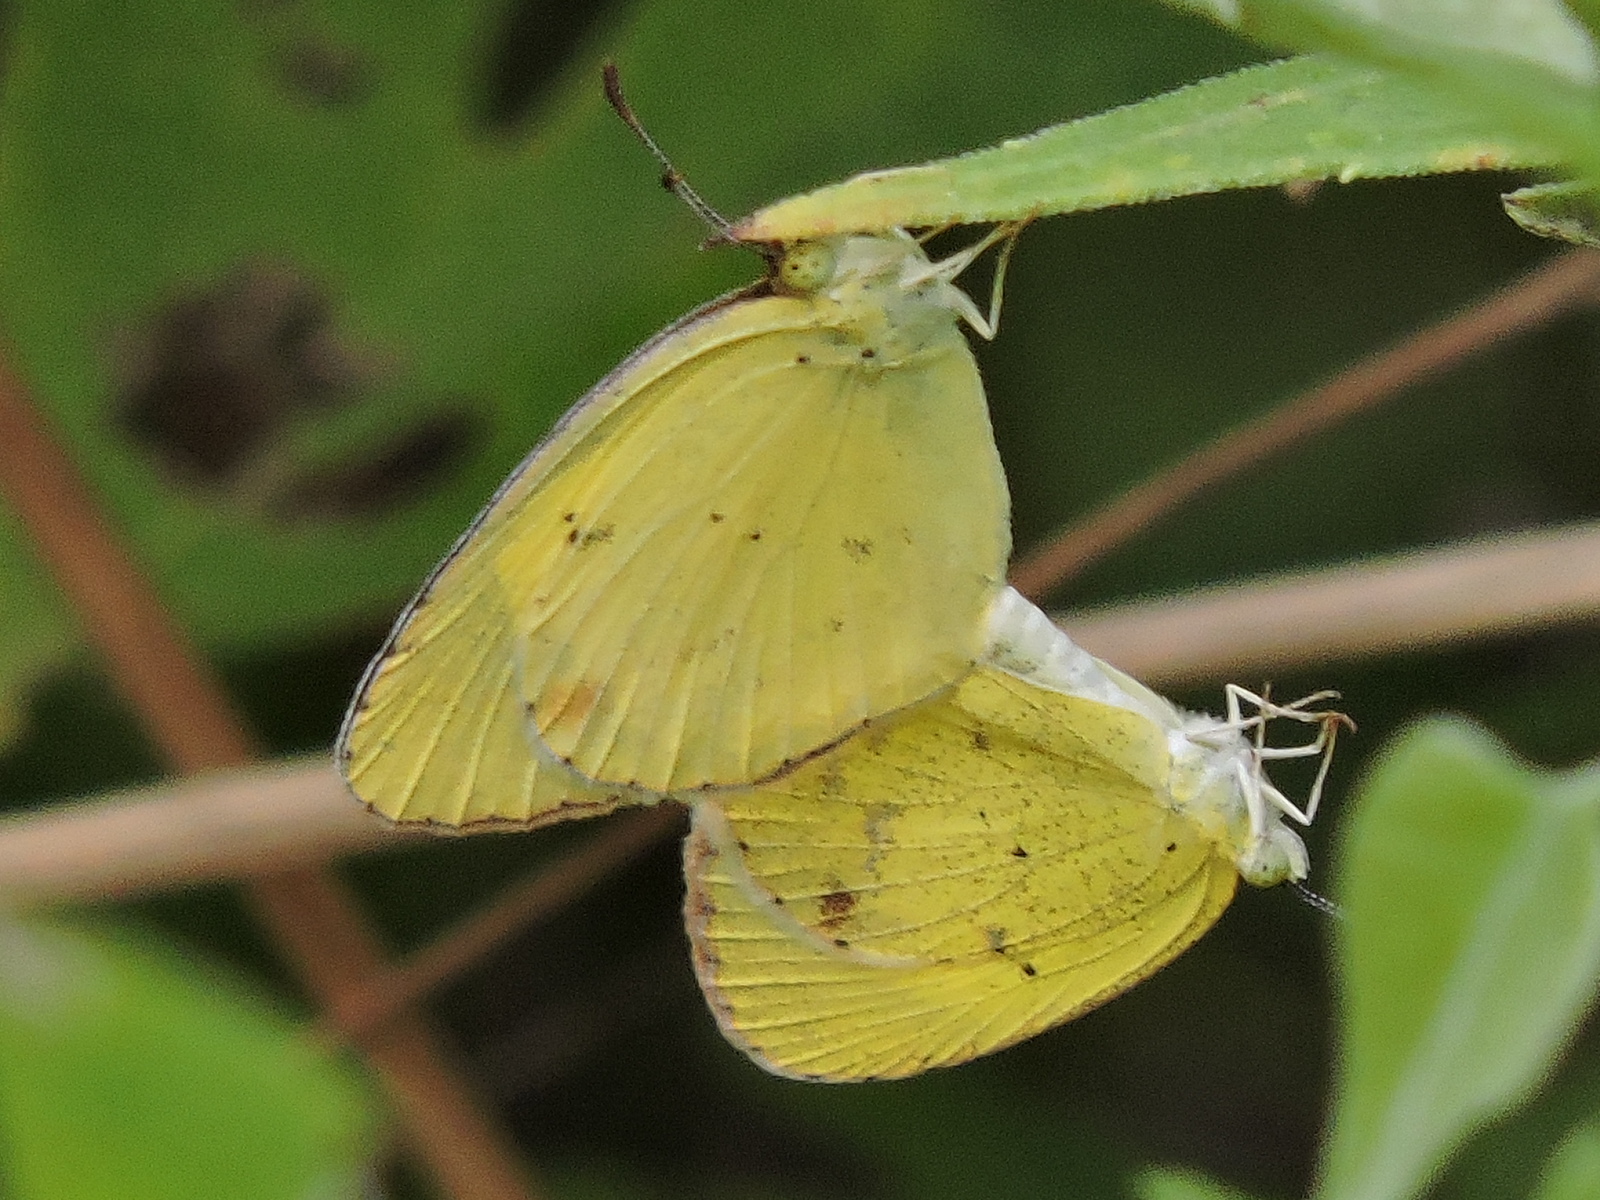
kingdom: Animalia
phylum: Arthropoda
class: Insecta
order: Lepidoptera
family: Pieridae
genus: Pyrisitia
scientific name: Pyrisitia lisa
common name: Little yellow
